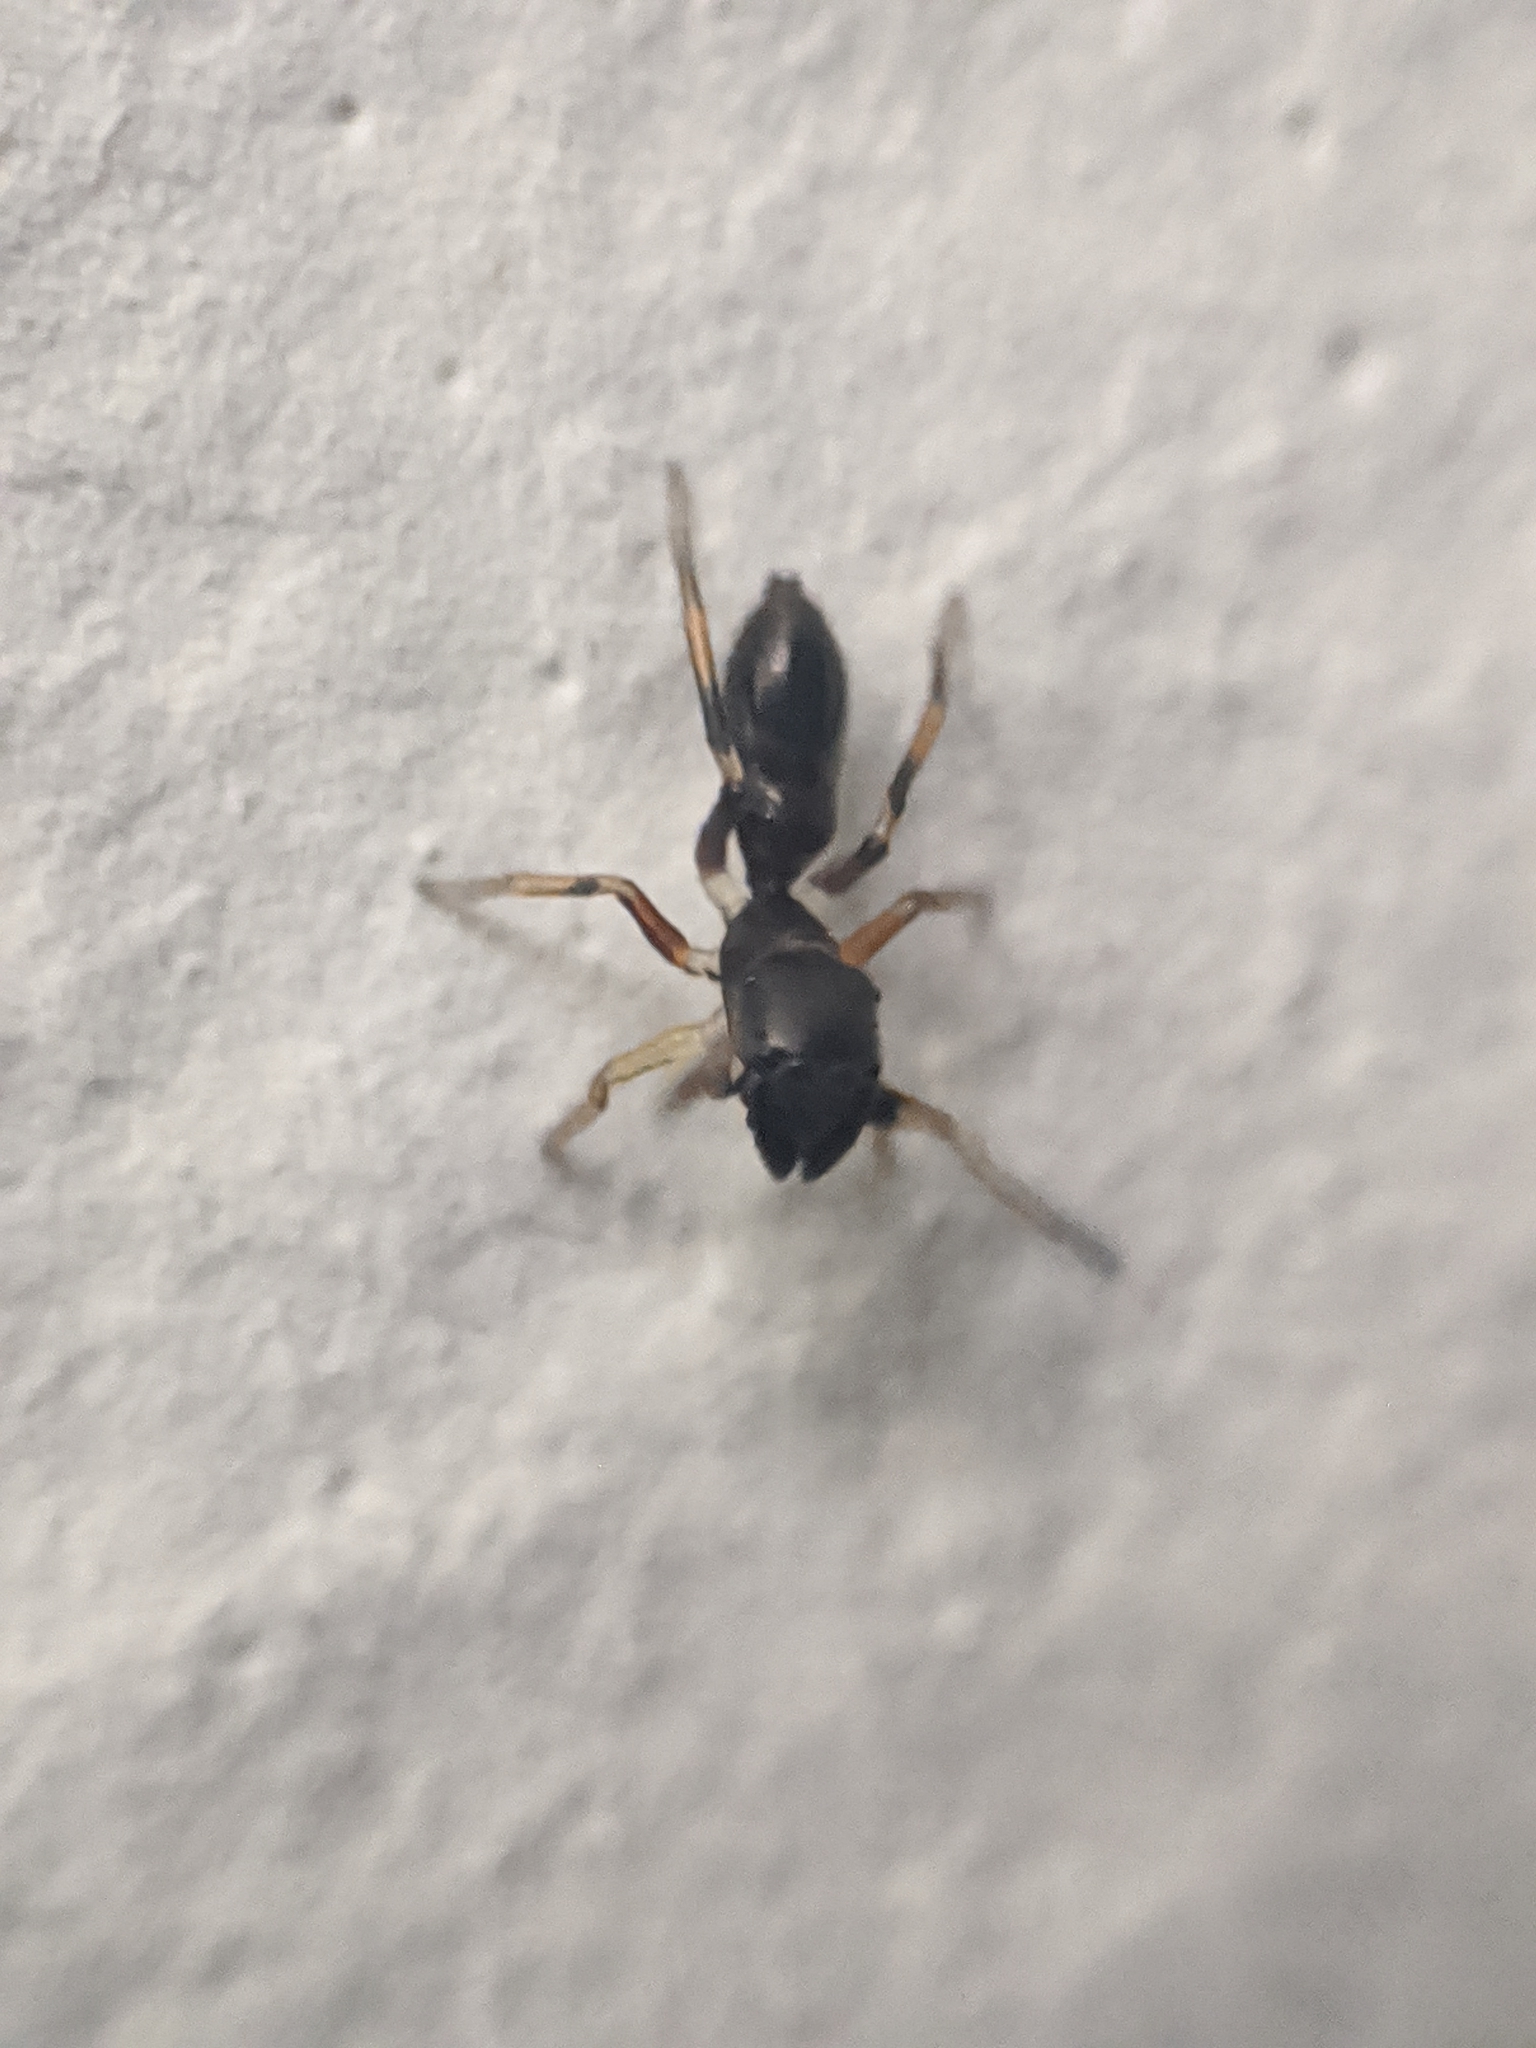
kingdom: Animalia
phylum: Arthropoda
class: Arachnida
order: Araneae
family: Salticidae
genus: Myrmarachne
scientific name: Myrmarachne formicaria
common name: Ant mimic jumping spider
